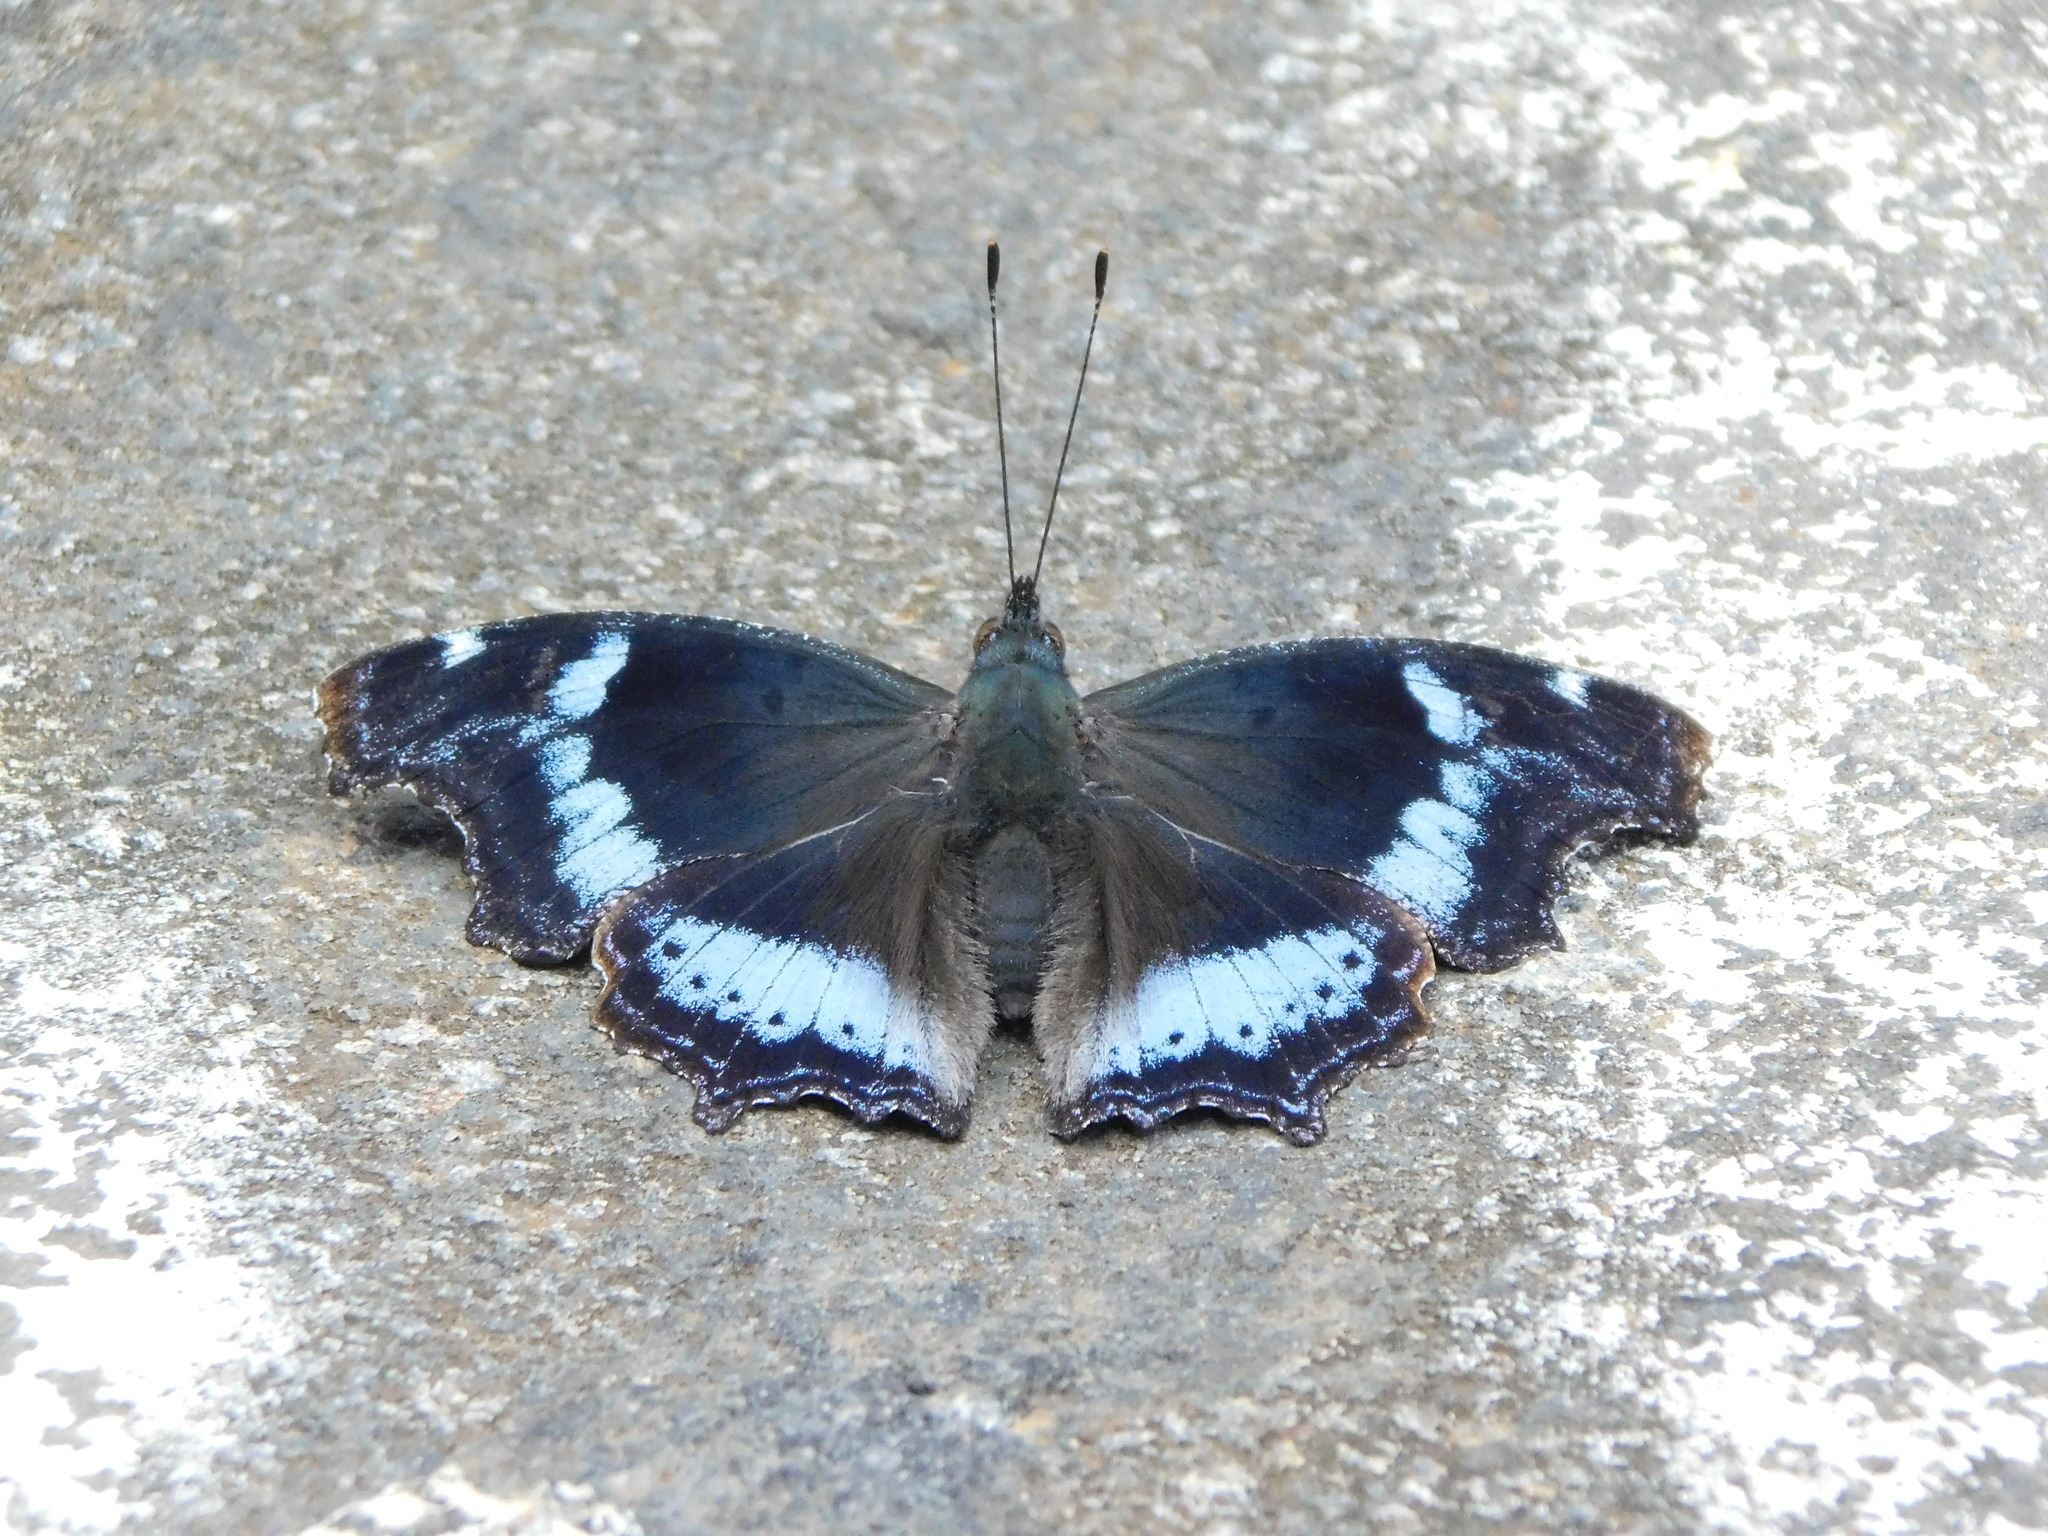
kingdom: Animalia
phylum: Arthropoda
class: Insecta
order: Lepidoptera
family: Nymphalidae
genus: Vanessa
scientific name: Vanessa Kaniska canace
